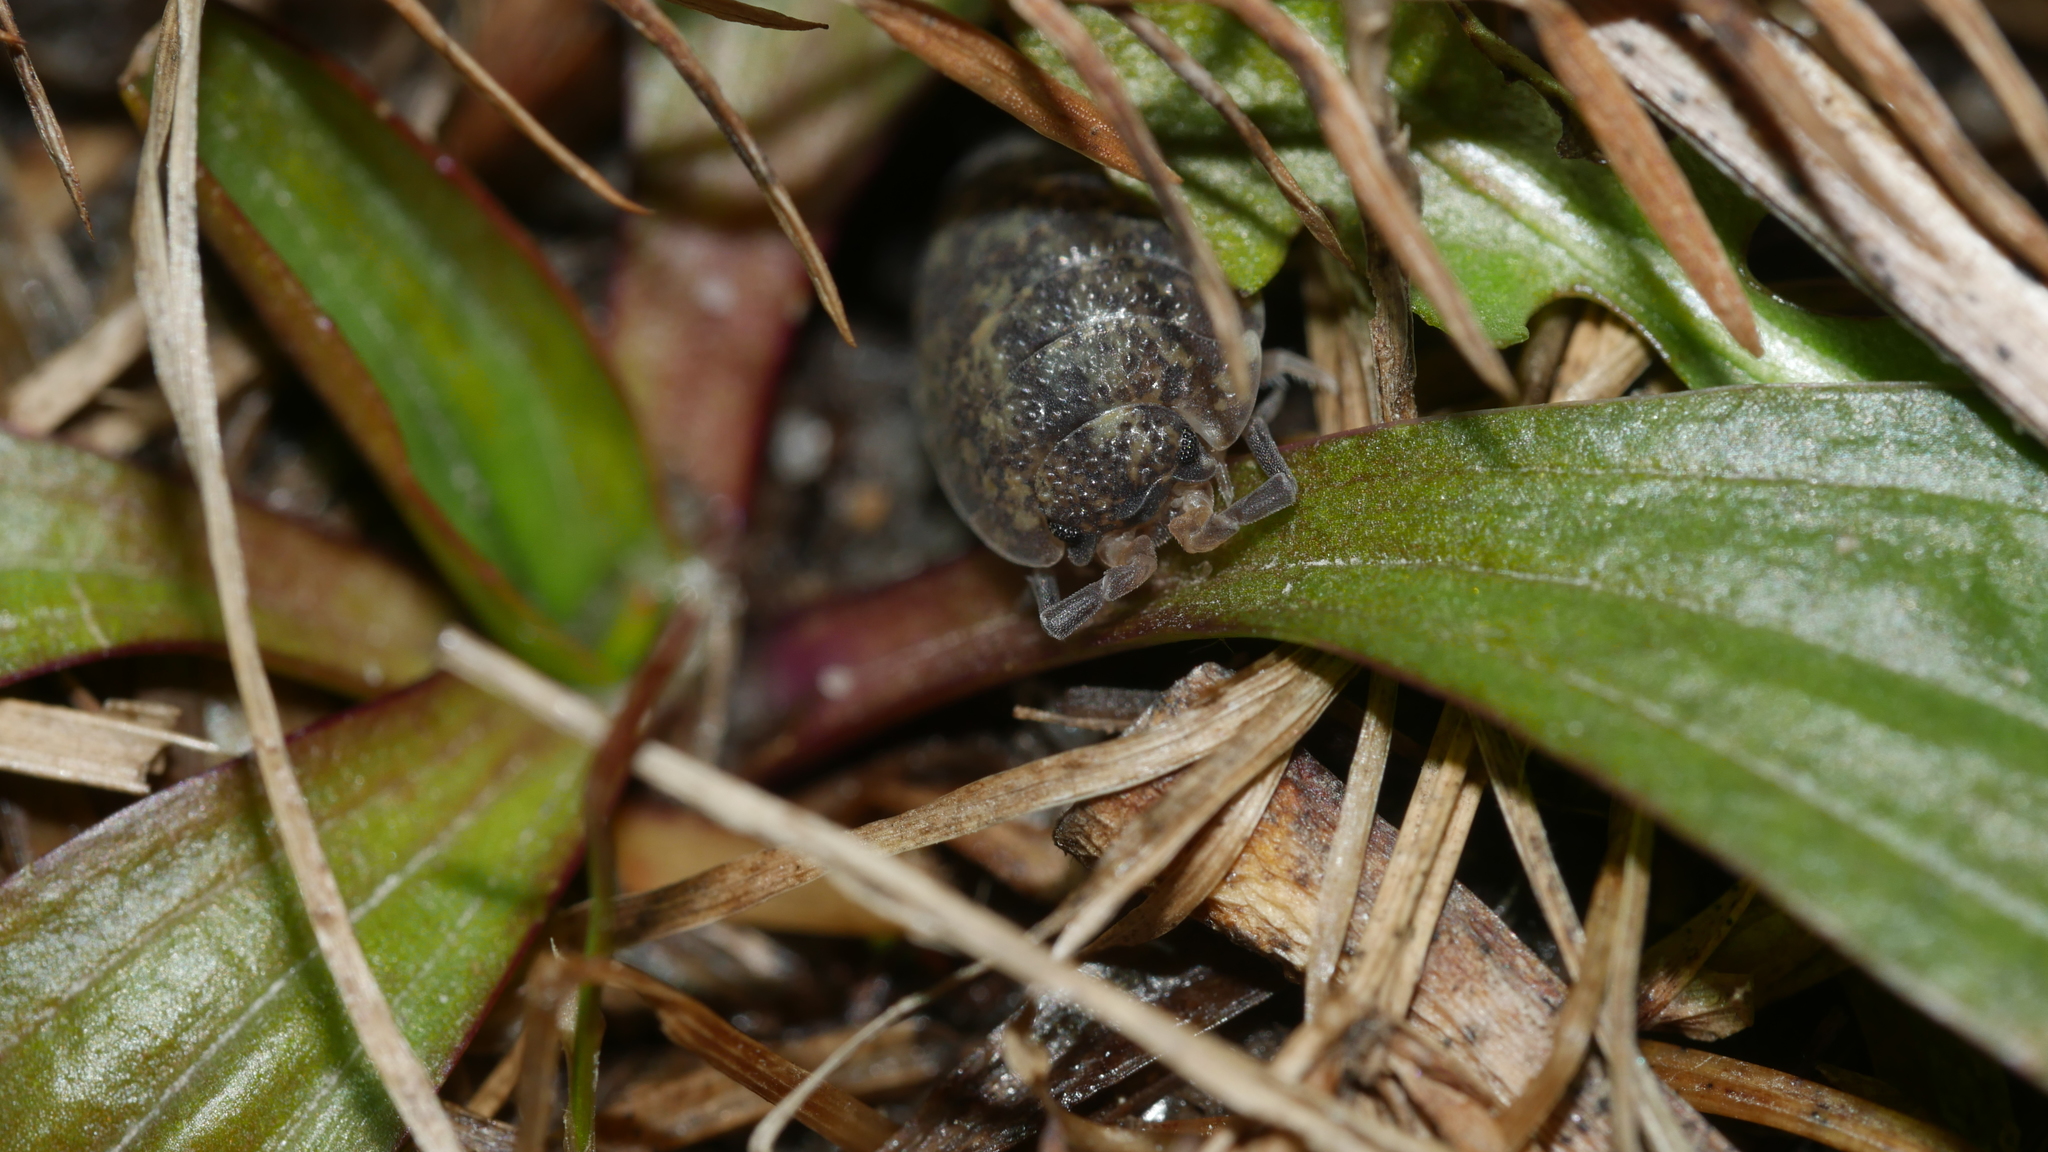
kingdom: Animalia
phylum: Arthropoda
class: Malacostraca
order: Isopoda
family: Porcellionidae
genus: Porcellio
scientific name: Porcellio scaber
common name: Common rough woodlouse
